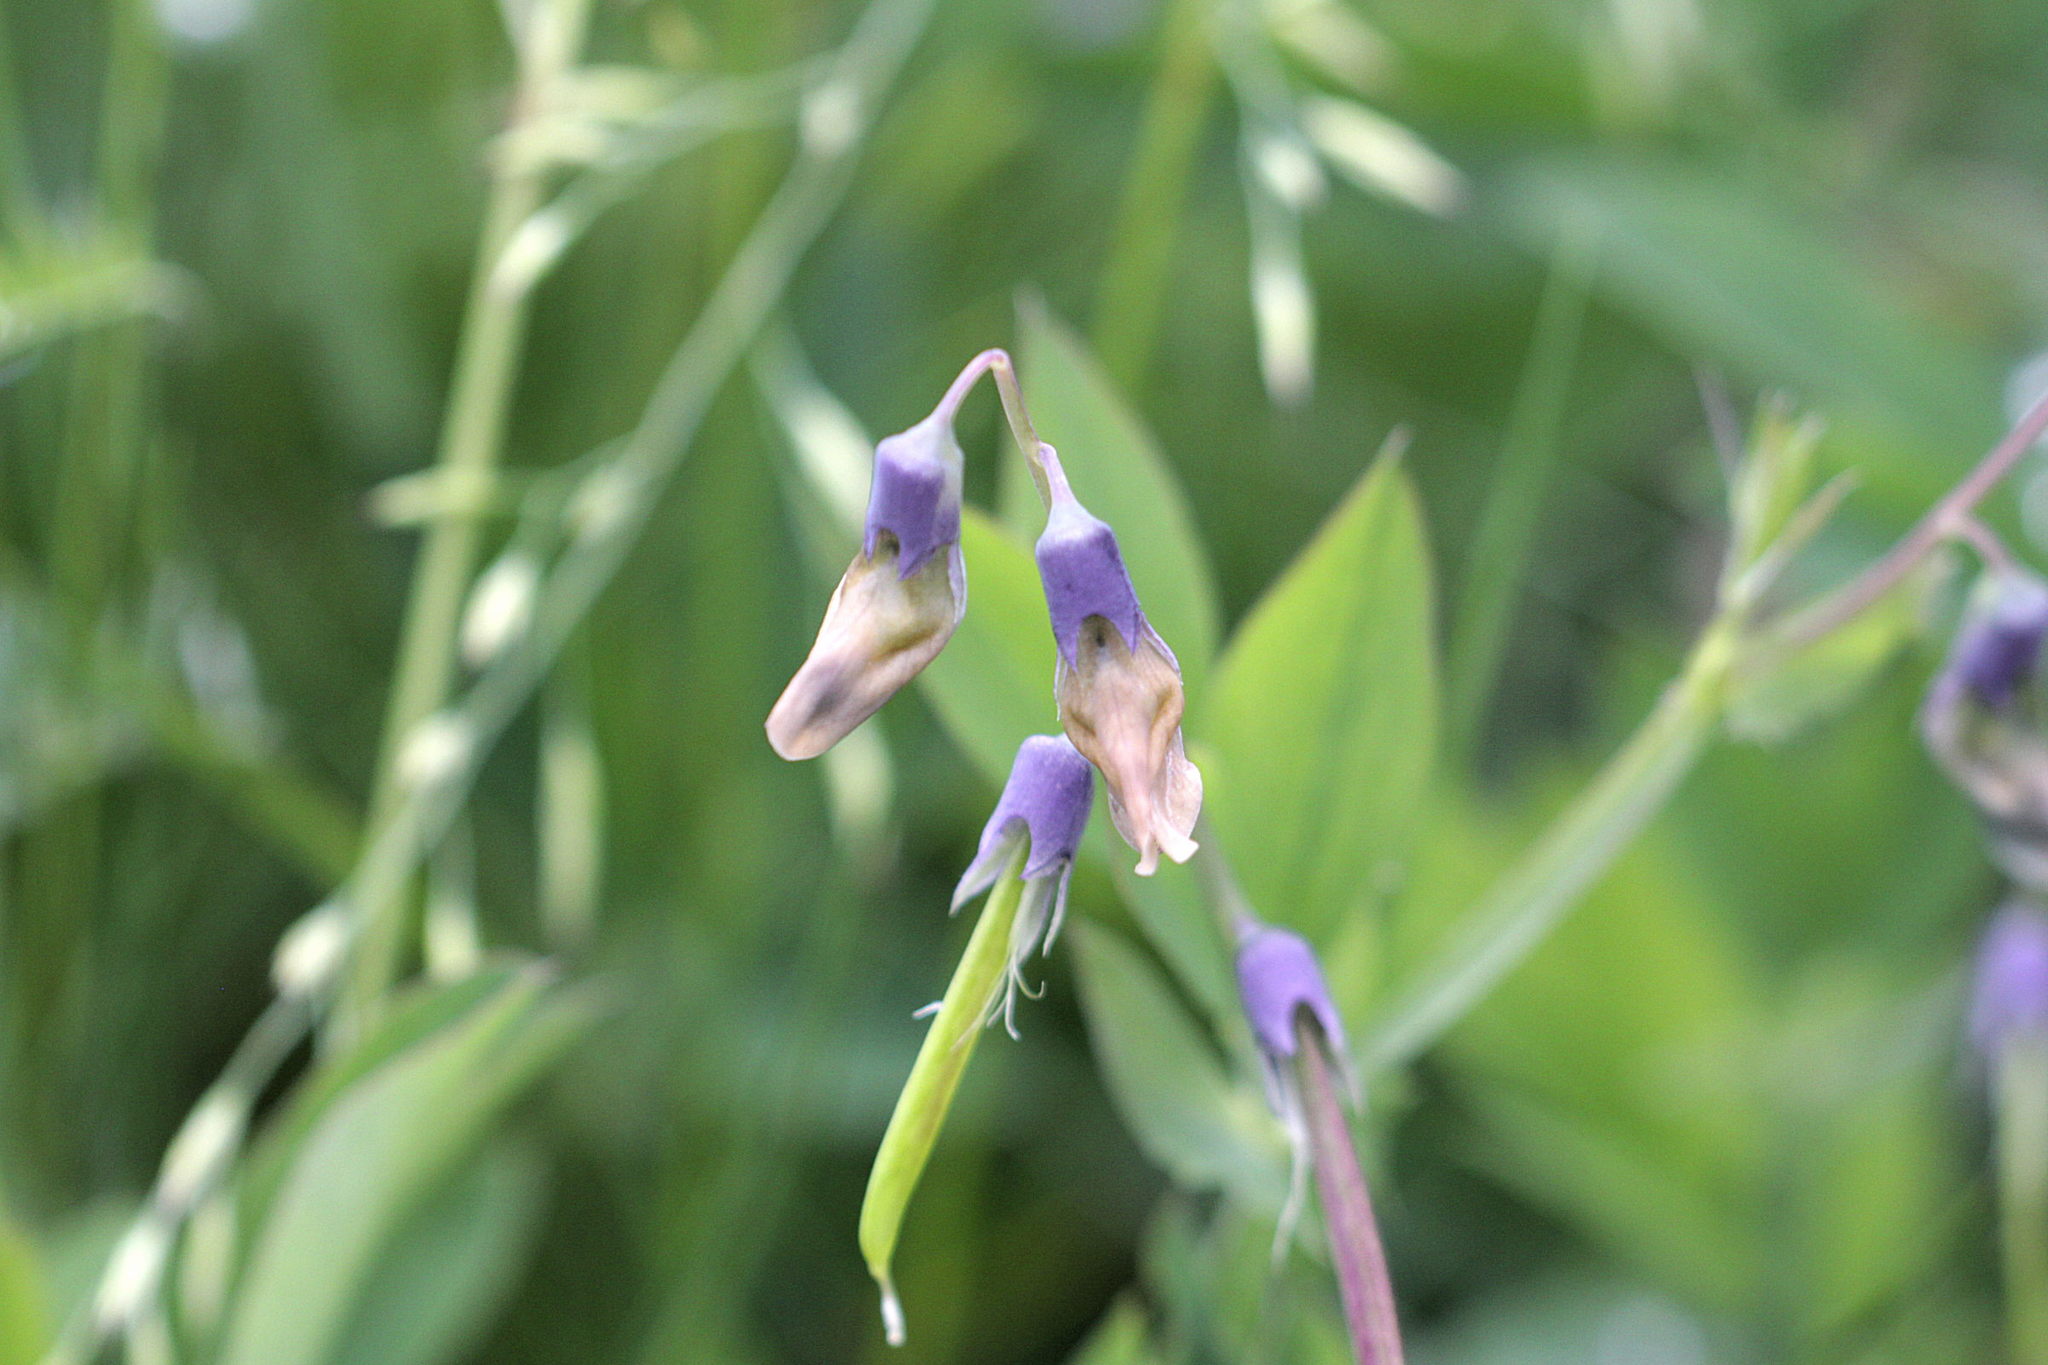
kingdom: Plantae
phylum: Tracheophyta
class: Magnoliopsida
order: Fabales
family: Fabaceae
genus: Lathyrus
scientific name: Lathyrus linifolius
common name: Bitter-vetch
